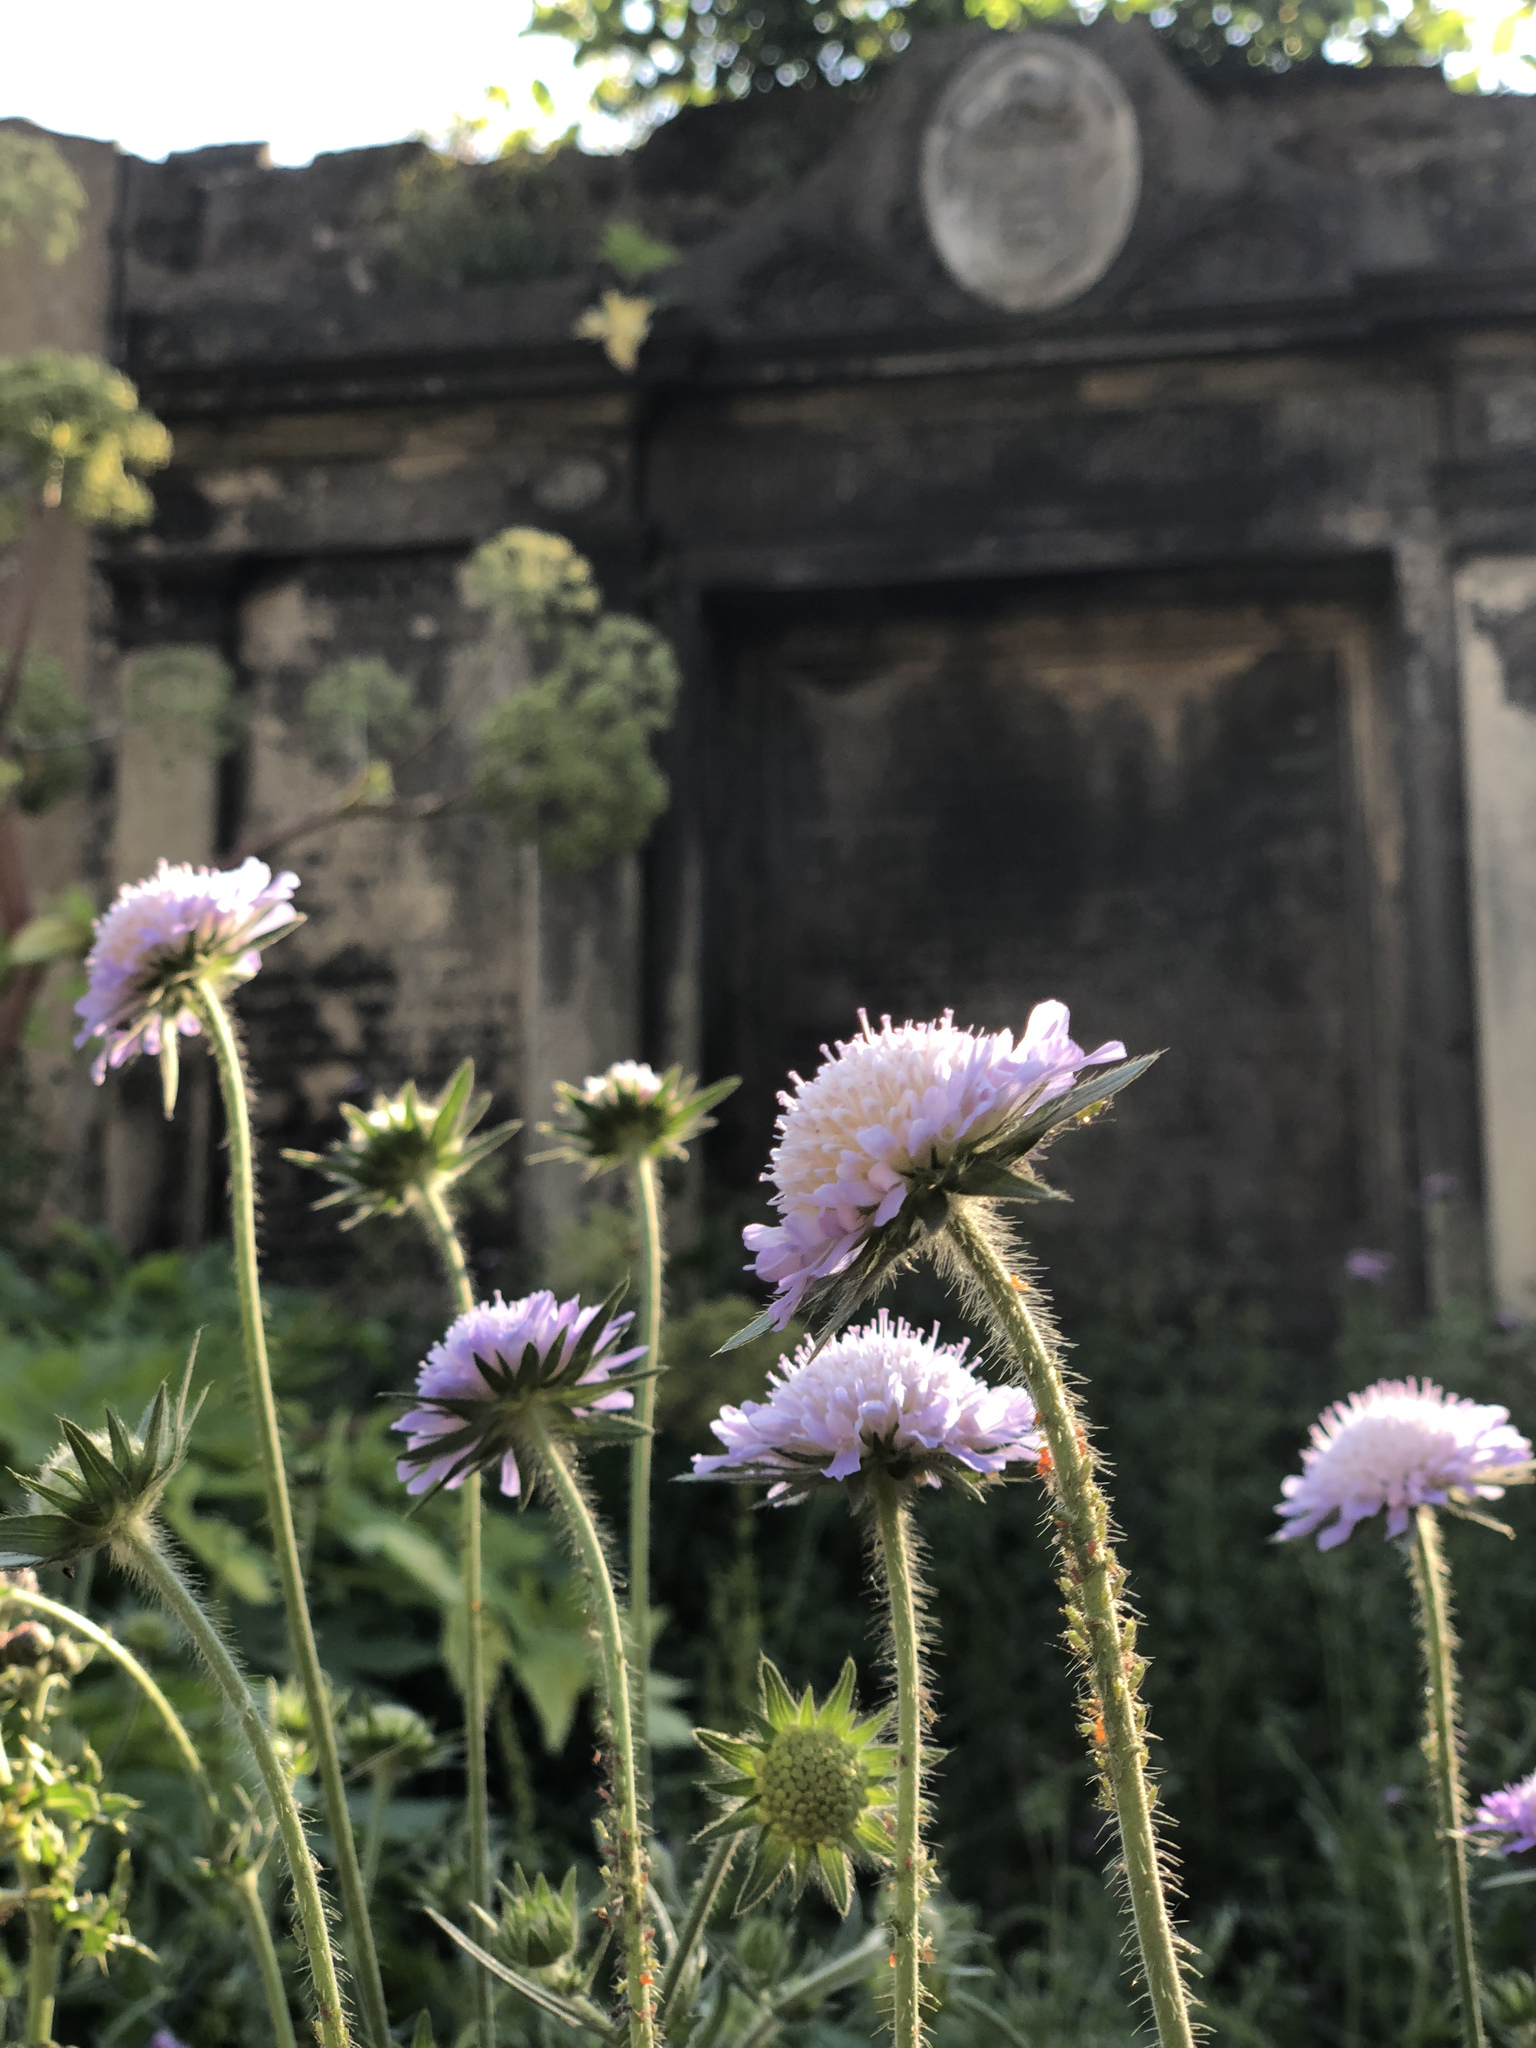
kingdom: Plantae
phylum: Tracheophyta
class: Magnoliopsida
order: Dipsacales
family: Caprifoliaceae
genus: Sixalix
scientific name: Sixalix atropurpurea
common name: Sweet scabious
